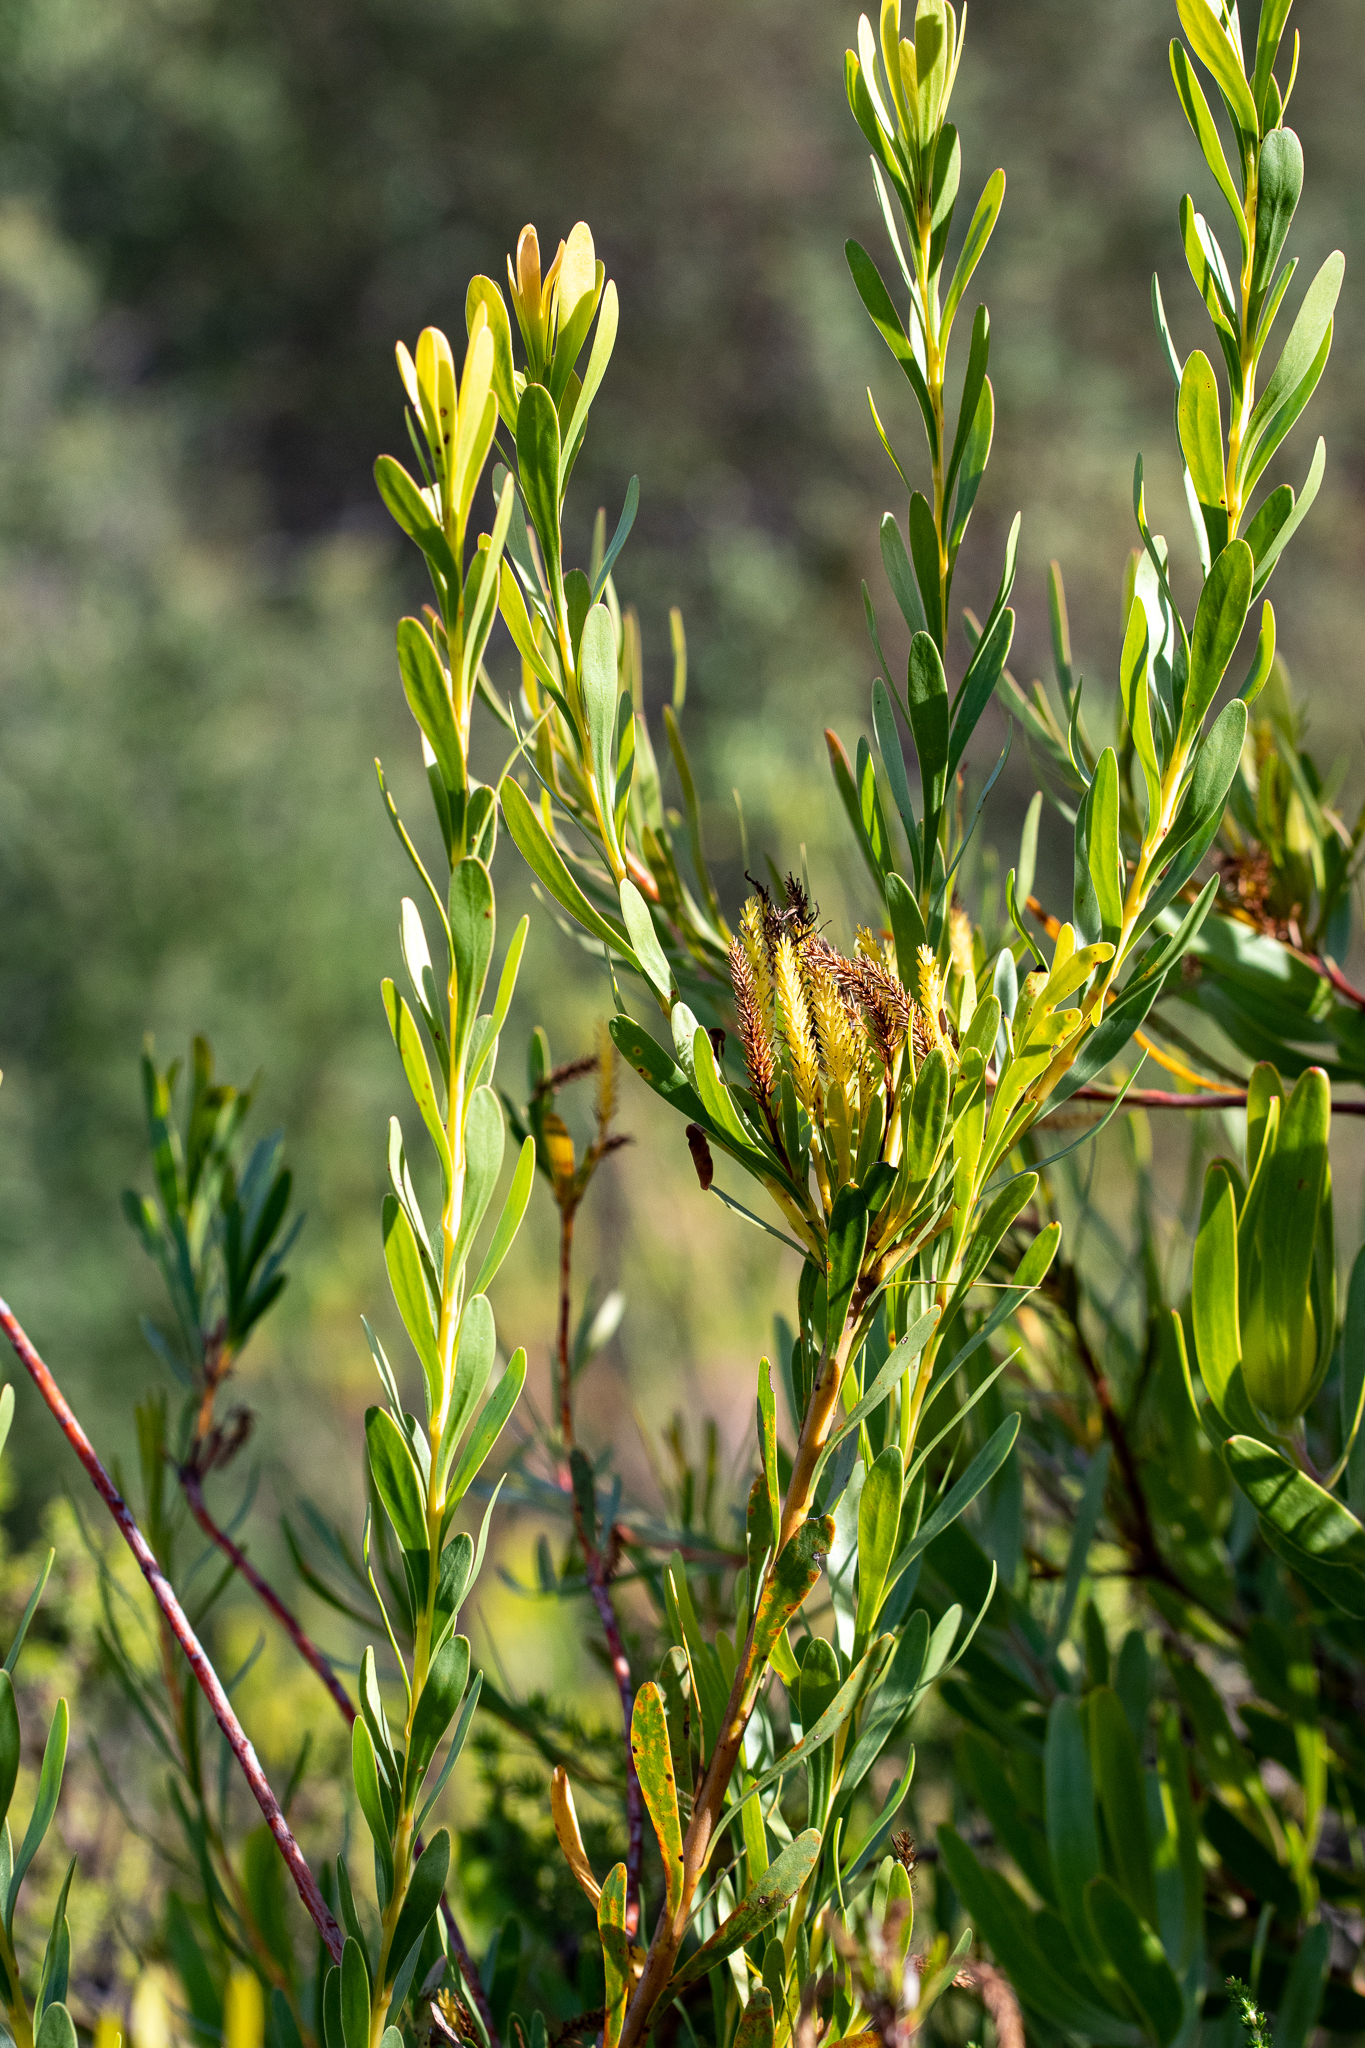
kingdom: Plantae
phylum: Tracheophyta
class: Magnoliopsida
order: Proteales
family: Proteaceae
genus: Aulax
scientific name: Aulax umbellata
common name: Broad-leaf featherbush
